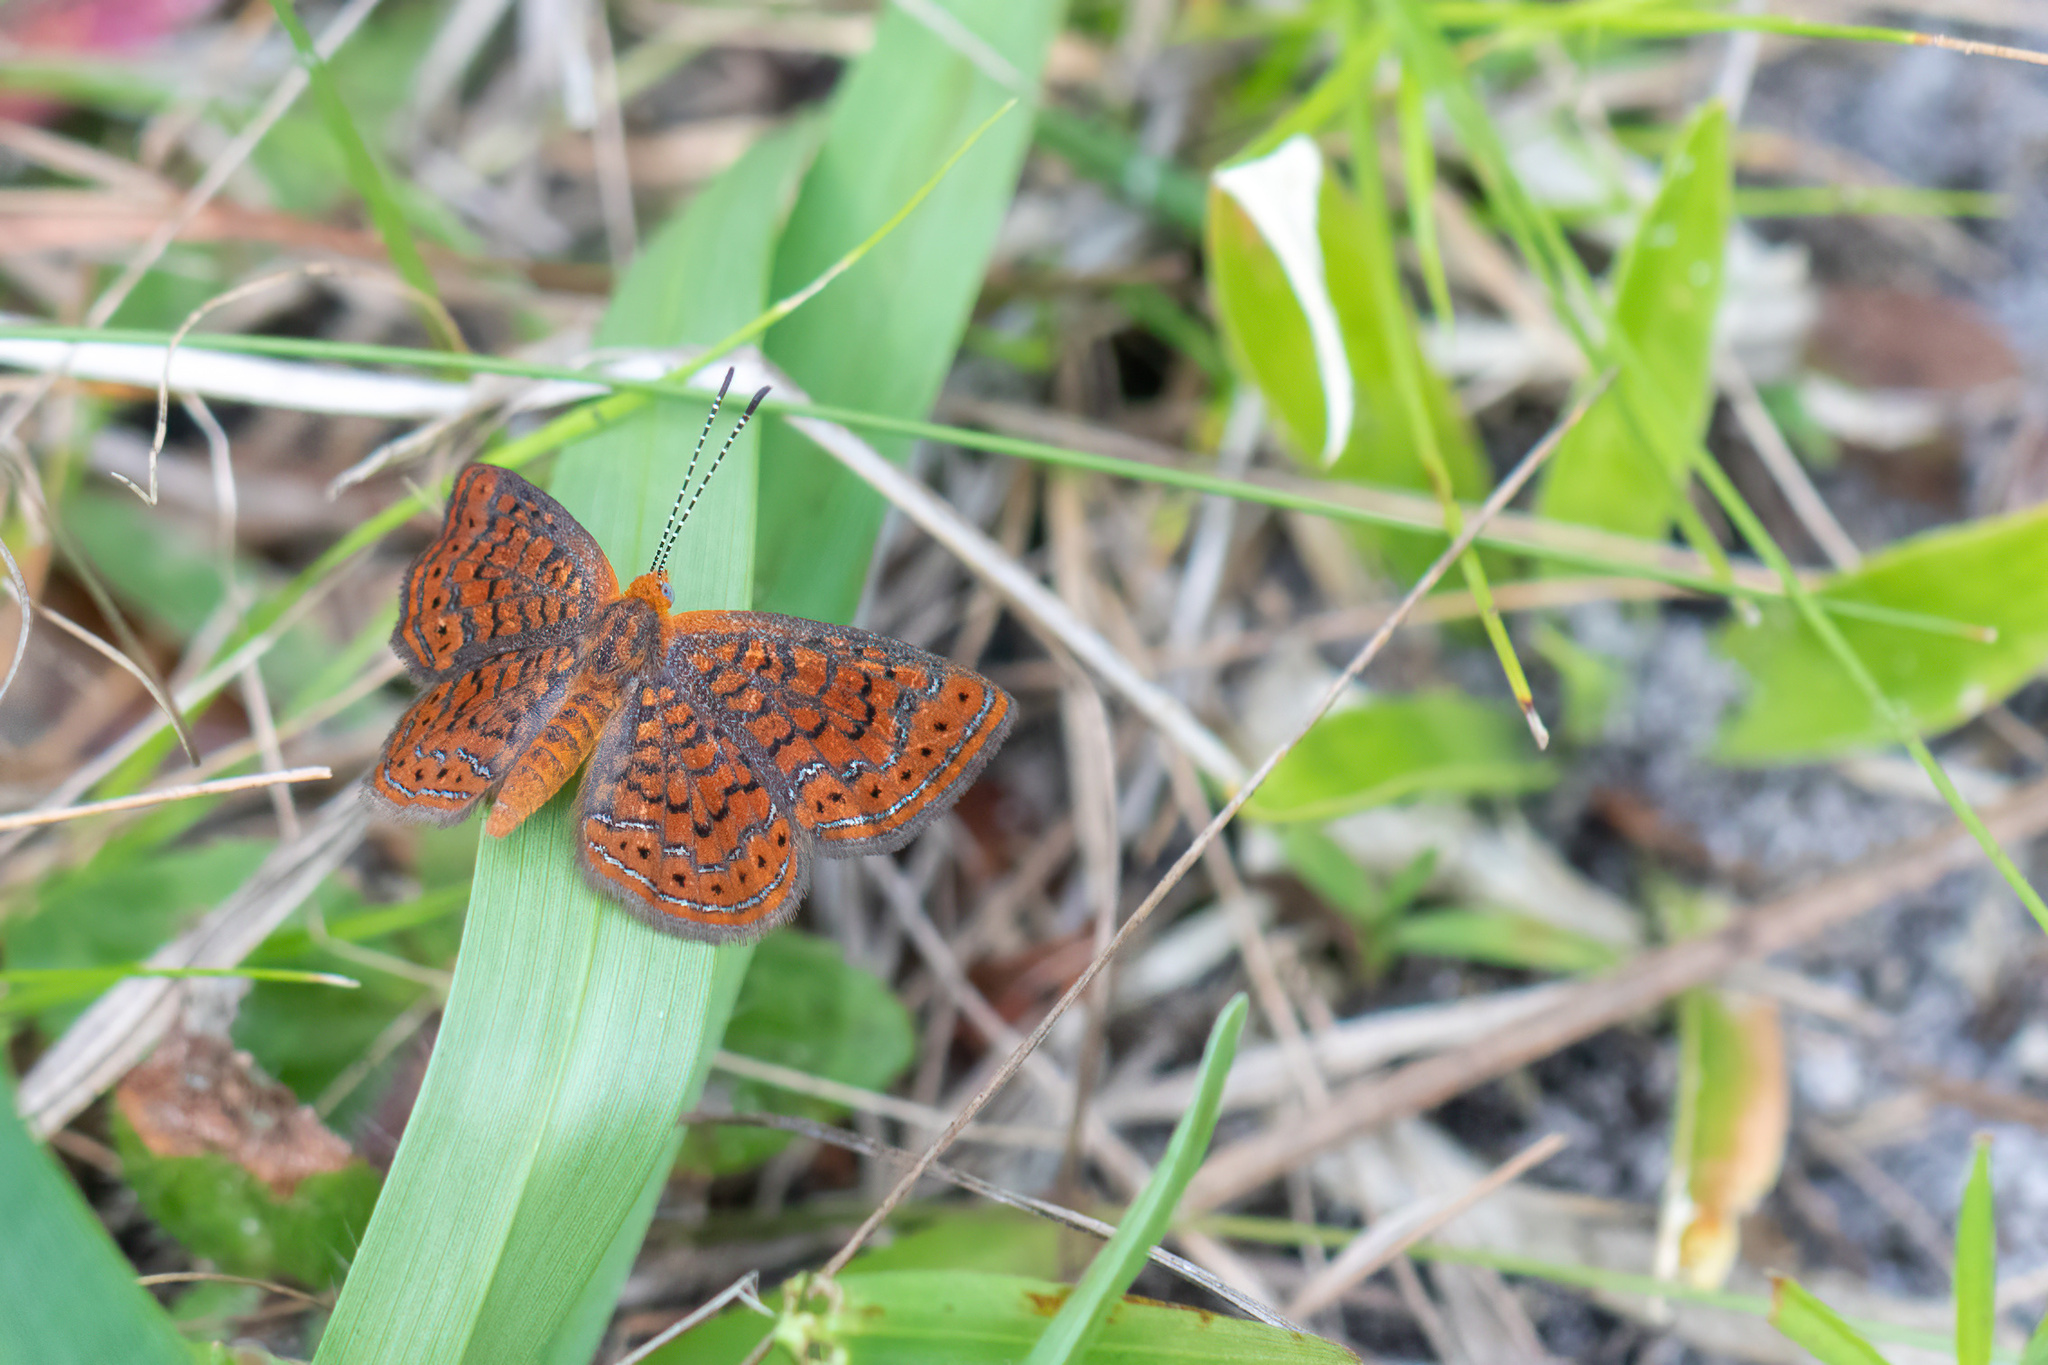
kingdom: Animalia
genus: Calephelis
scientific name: Calephelis virginiensis
